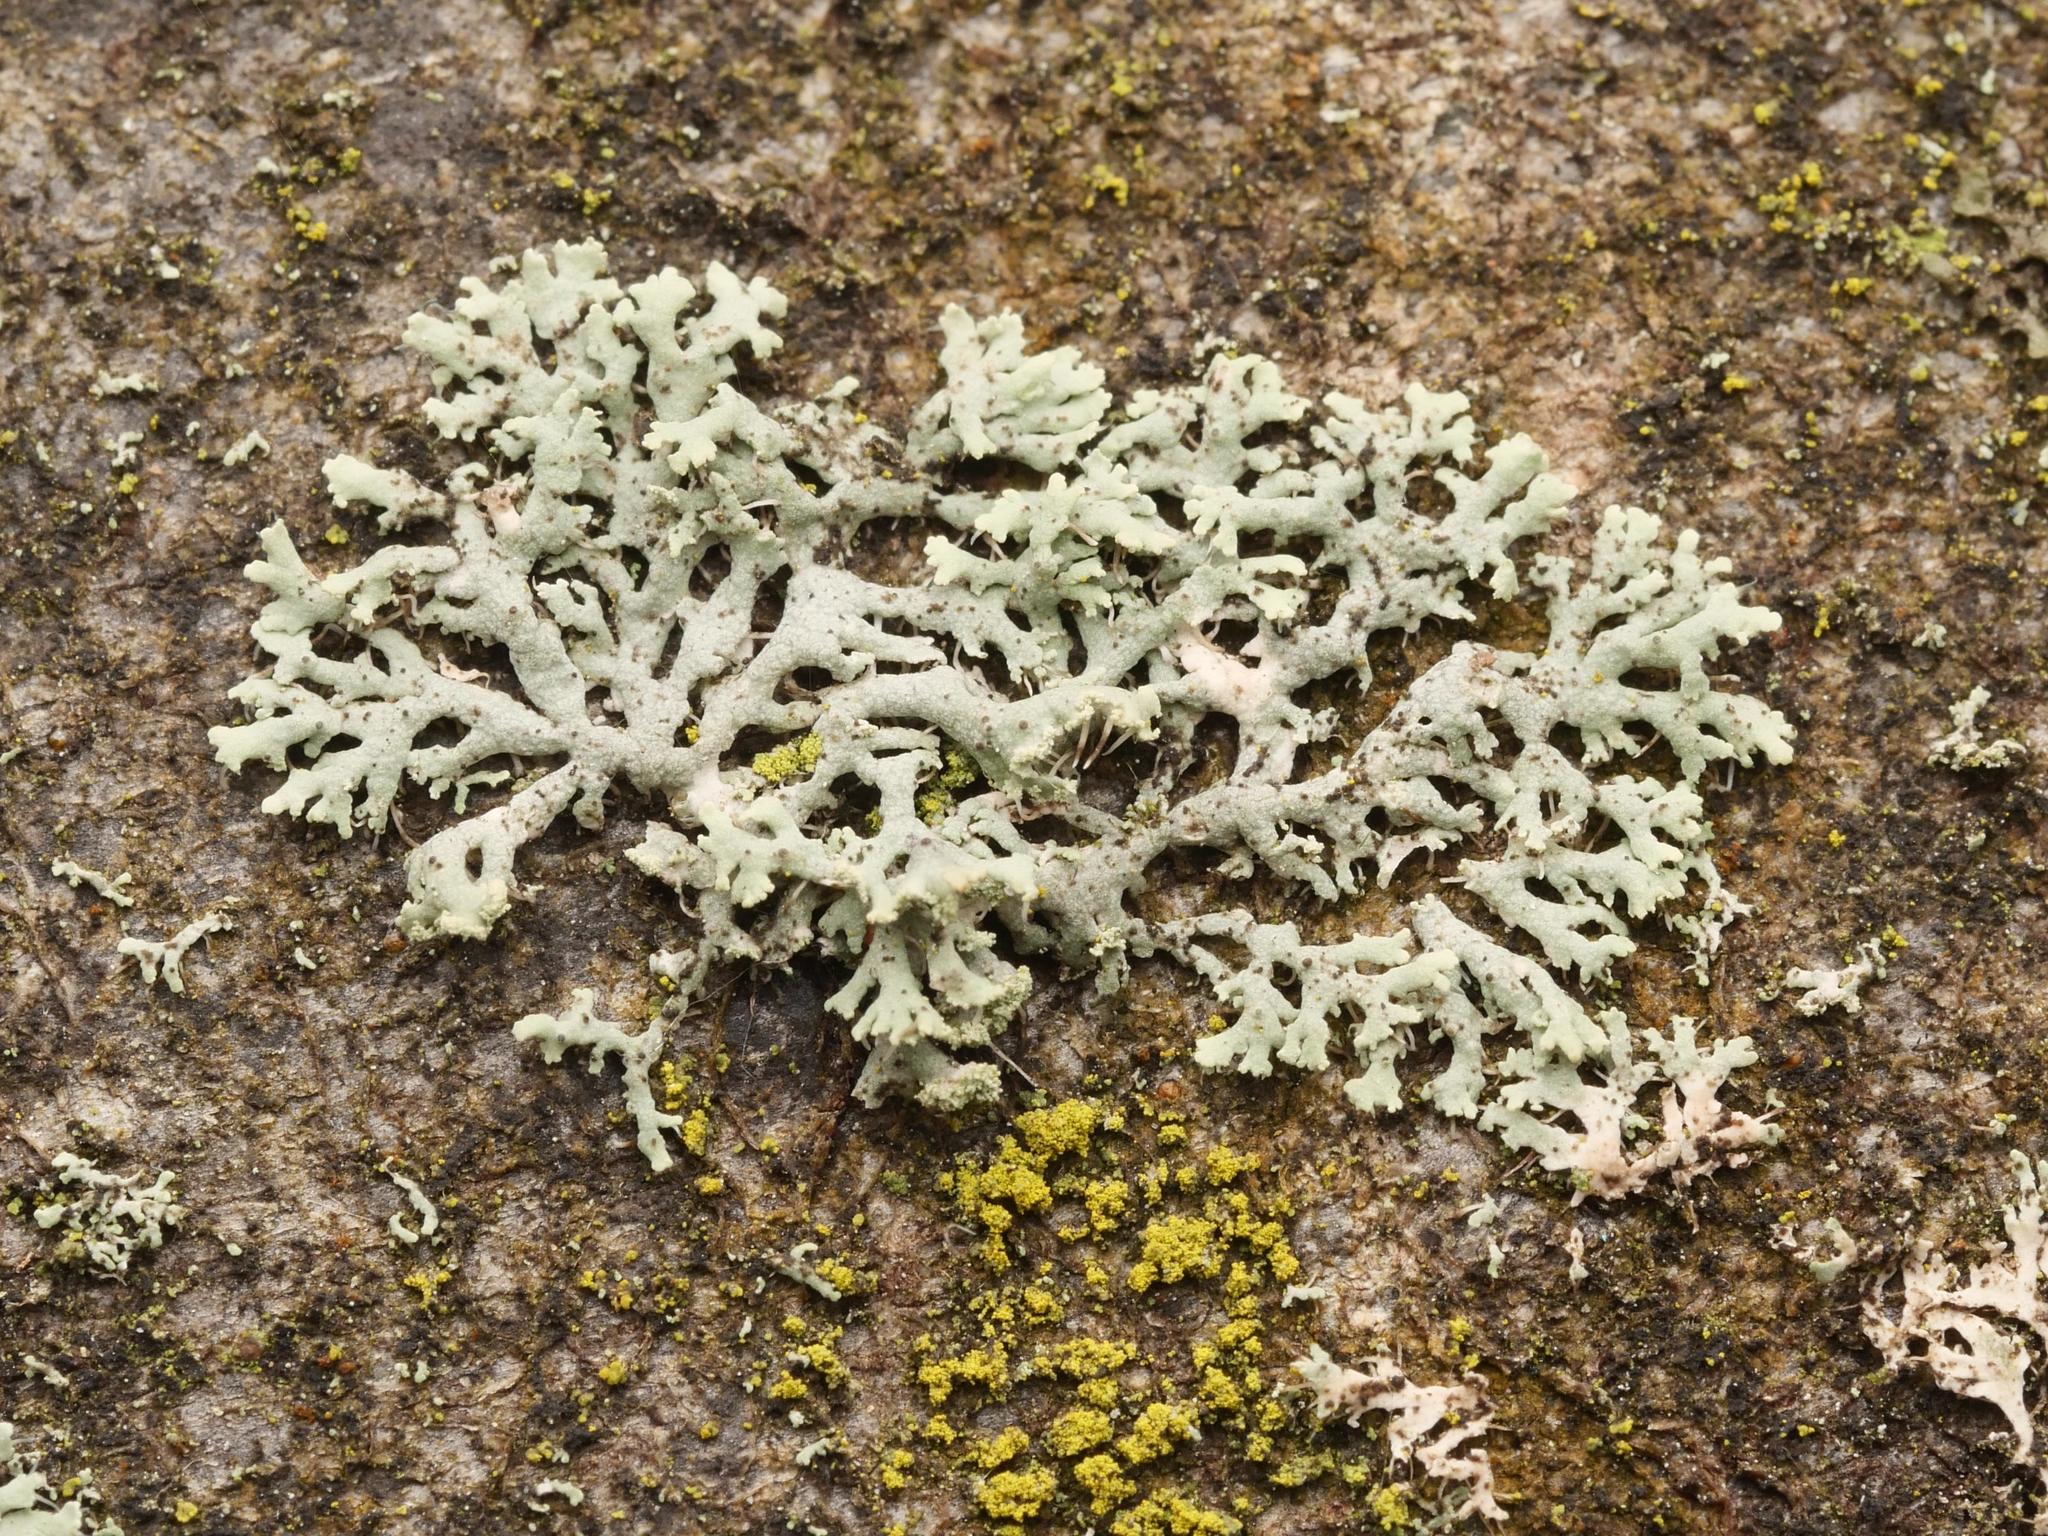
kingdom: Fungi
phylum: Ascomycota
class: Lecanoromycetes
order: Caliciales
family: Physciaceae
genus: Physcia
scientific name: Physcia tenella
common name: Fringed rosette lichen
